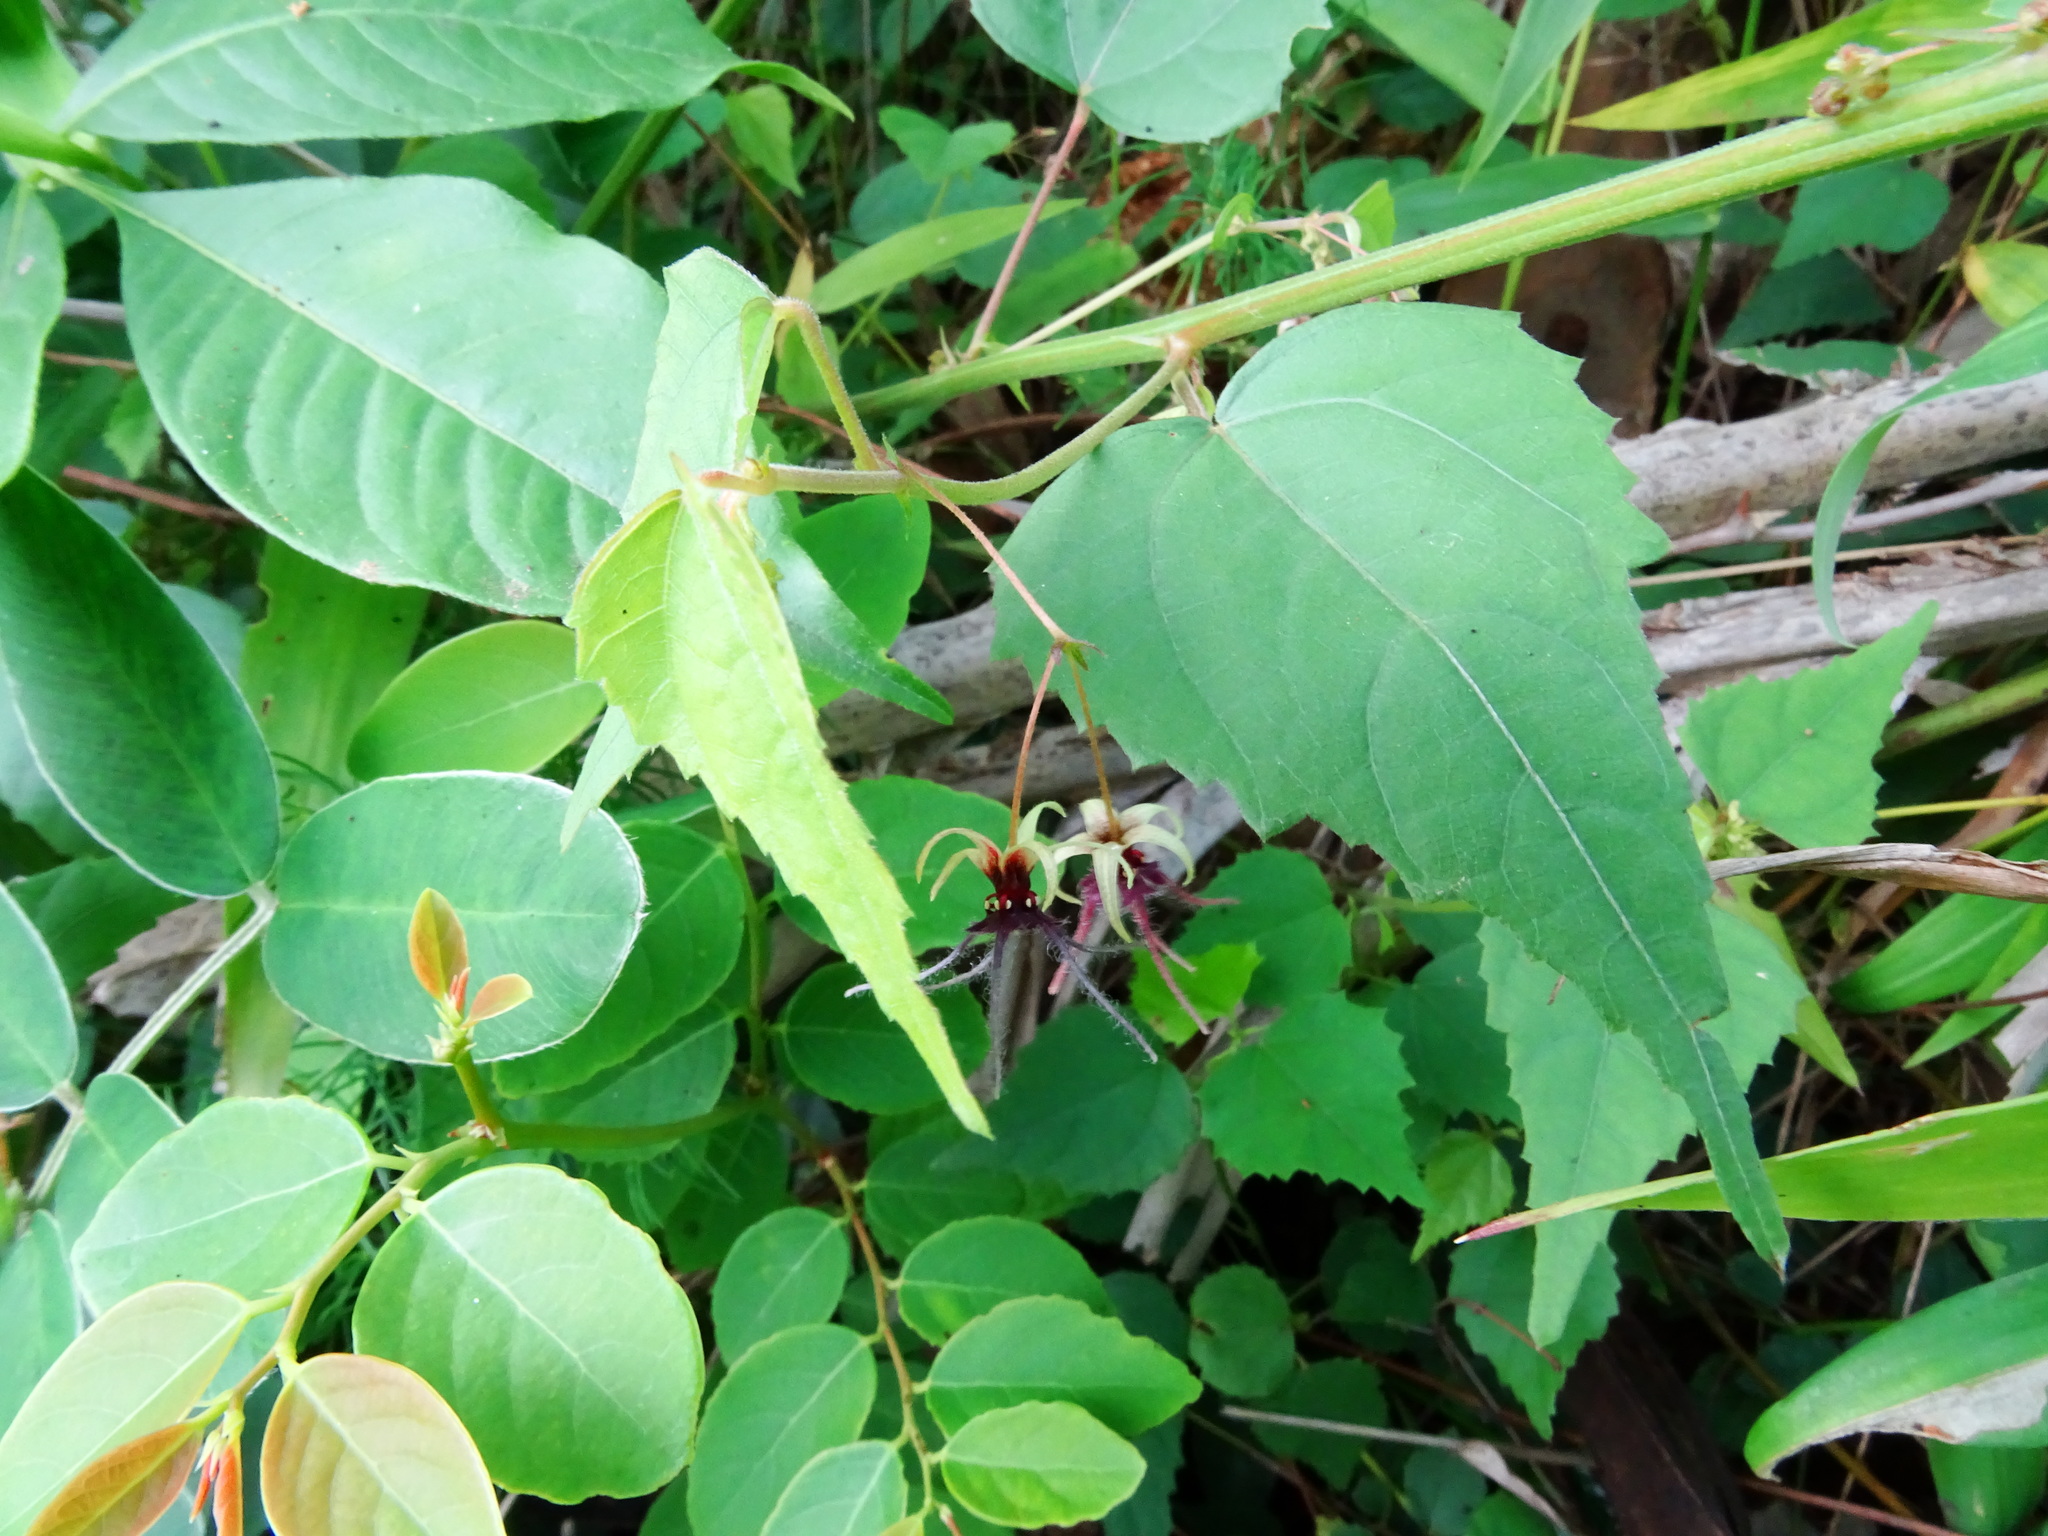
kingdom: Plantae
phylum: Tracheophyta
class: Magnoliopsida
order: Malvales
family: Malvaceae
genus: Byttneria
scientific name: Byttneria herbacea
